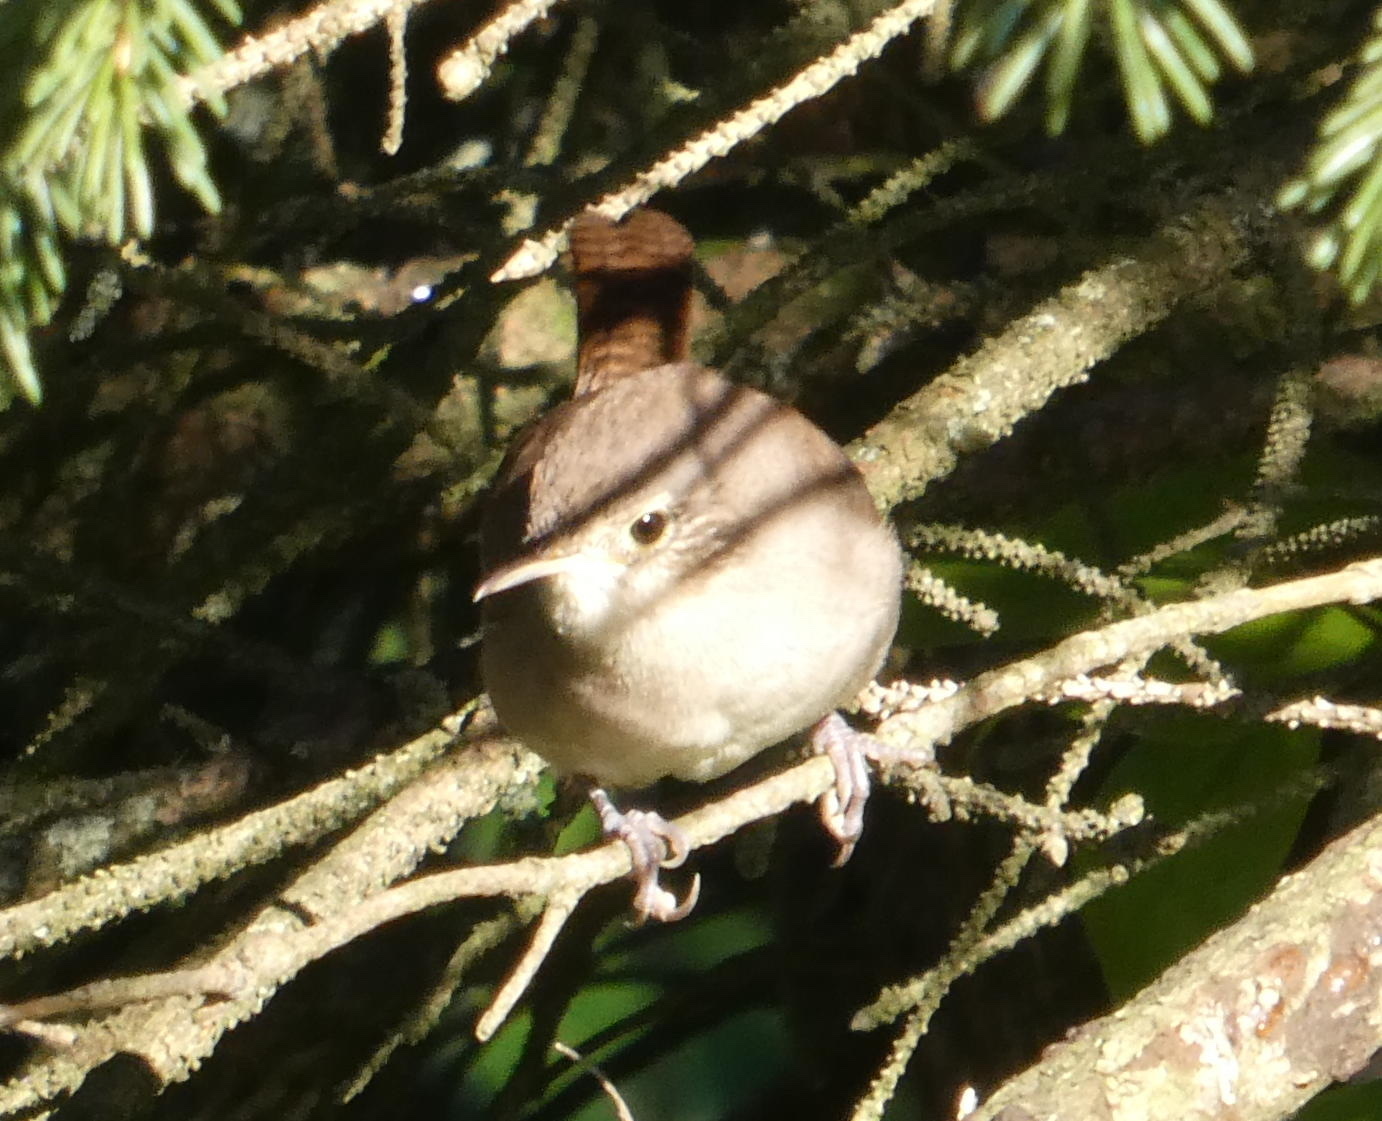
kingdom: Animalia
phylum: Chordata
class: Aves
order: Passeriformes
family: Troglodytidae
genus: Troglodytes
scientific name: Troglodytes aedon
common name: House wren
